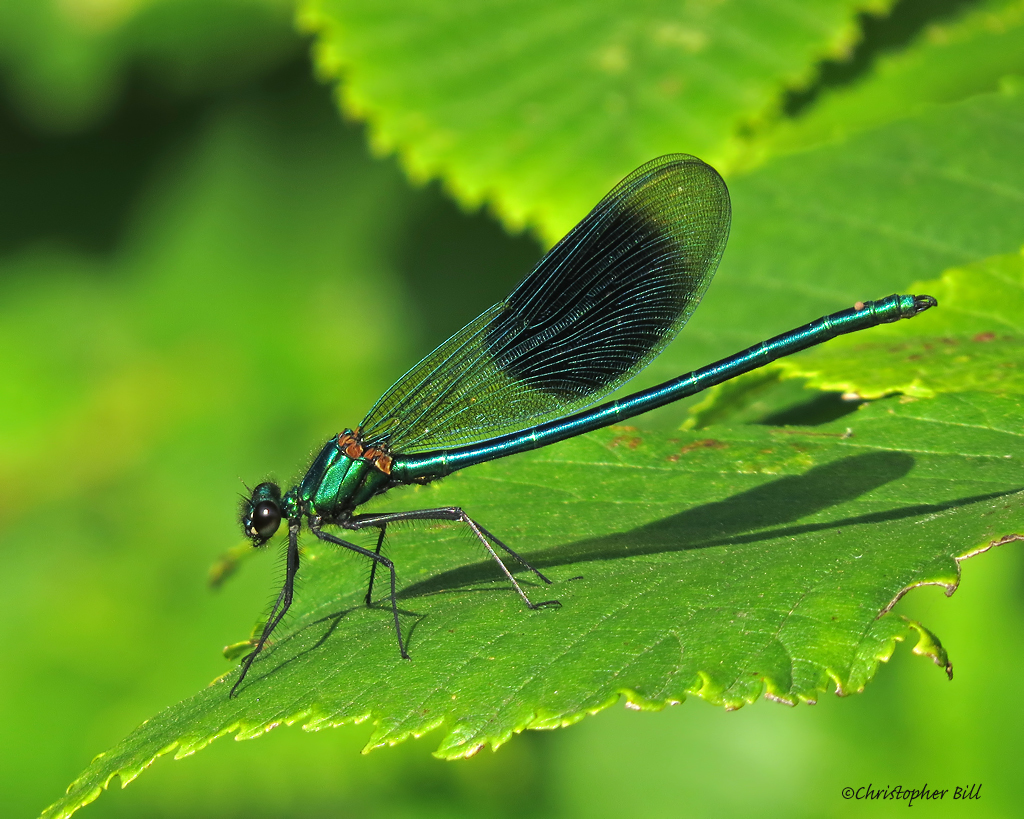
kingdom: Animalia
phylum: Arthropoda
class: Insecta
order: Odonata
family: Calopterygidae
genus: Calopteryx
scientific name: Calopteryx splendens
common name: Banded demoiselle
